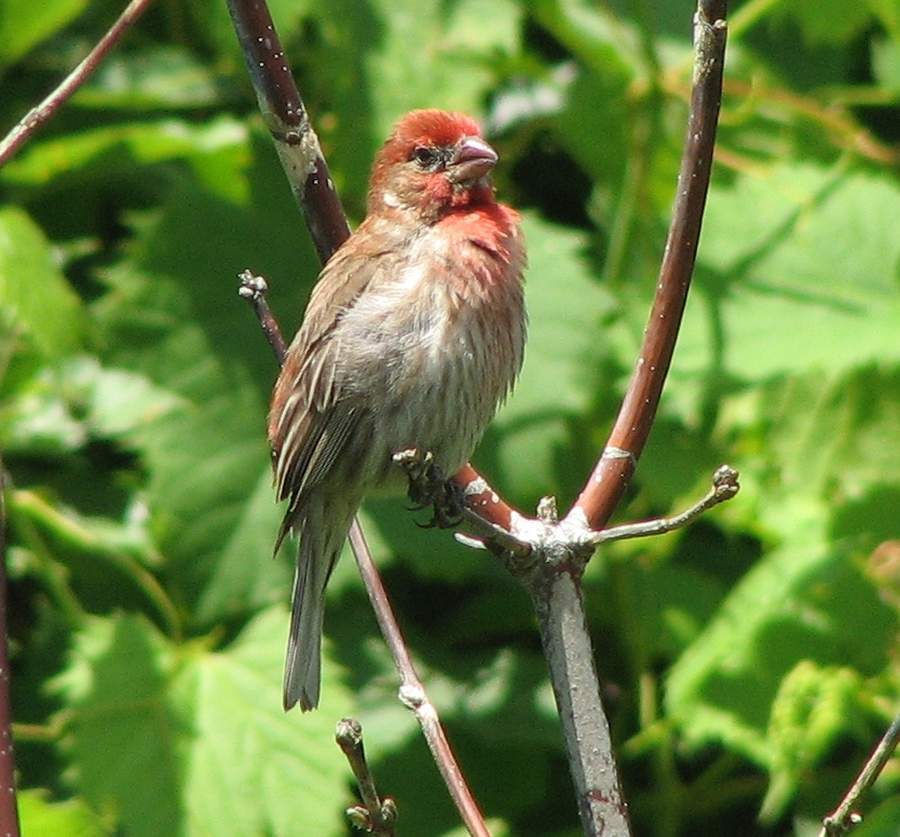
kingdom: Animalia
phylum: Chordata
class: Aves
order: Passeriformes
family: Fringillidae
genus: Haemorhous
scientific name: Haemorhous mexicanus
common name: House finch
